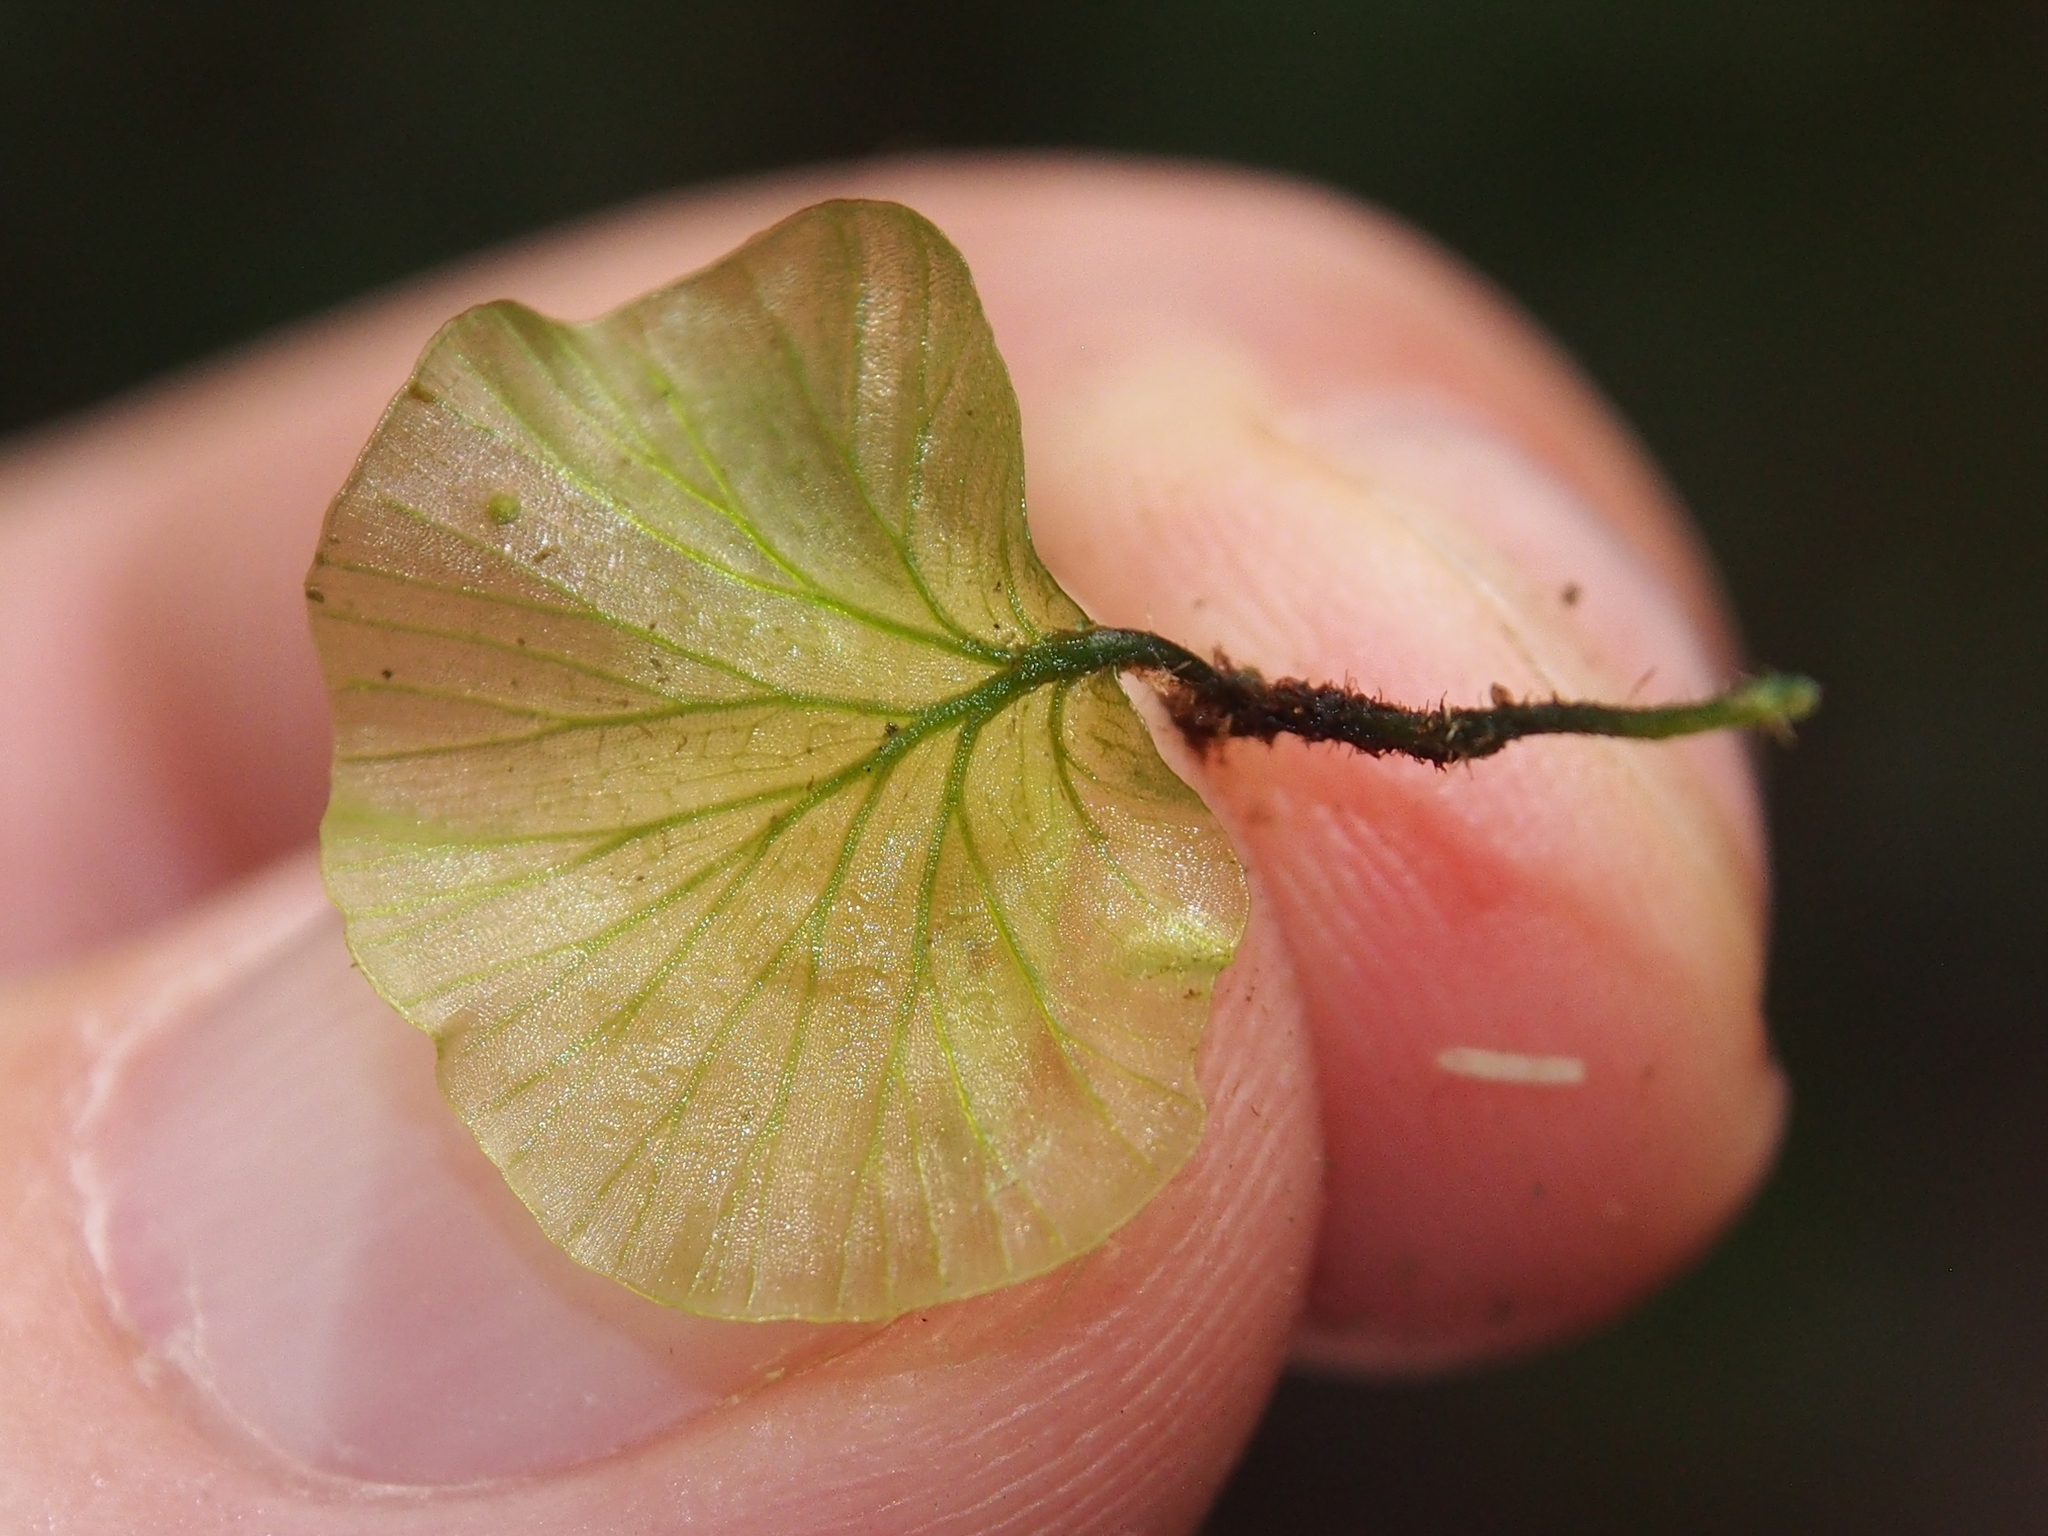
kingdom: Plantae
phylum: Tracheophyta
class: Polypodiopsida
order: Hymenophyllales
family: Hymenophyllaceae
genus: Didymoglossum
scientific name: Didymoglossum godmanii
